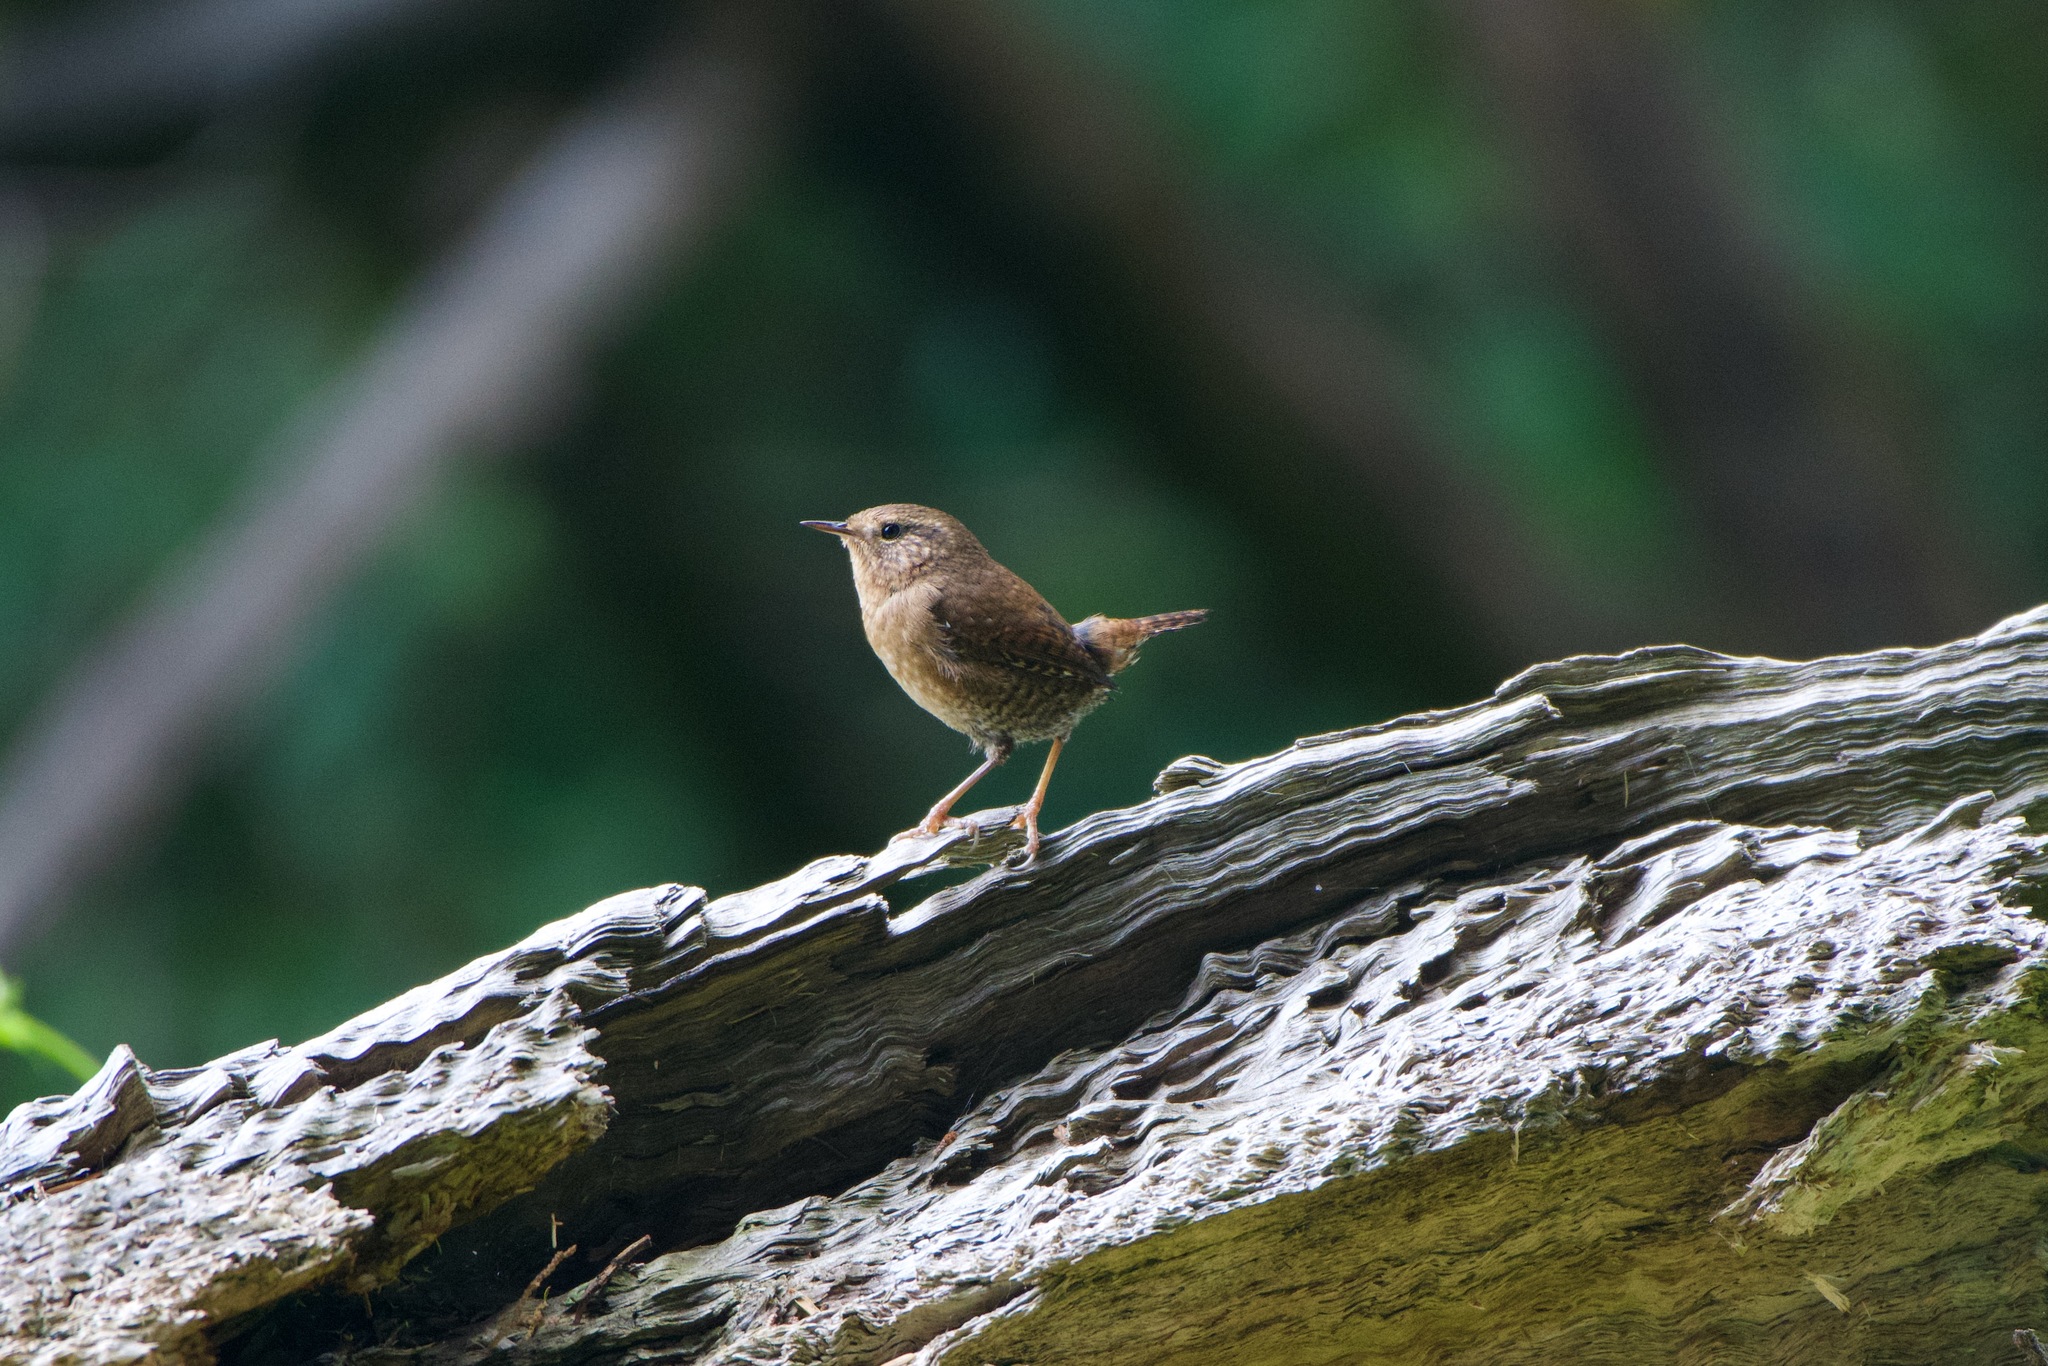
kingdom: Animalia
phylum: Chordata
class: Aves
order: Passeriformes
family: Troglodytidae
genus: Troglodytes
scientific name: Troglodytes pacificus
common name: Pacific wren
